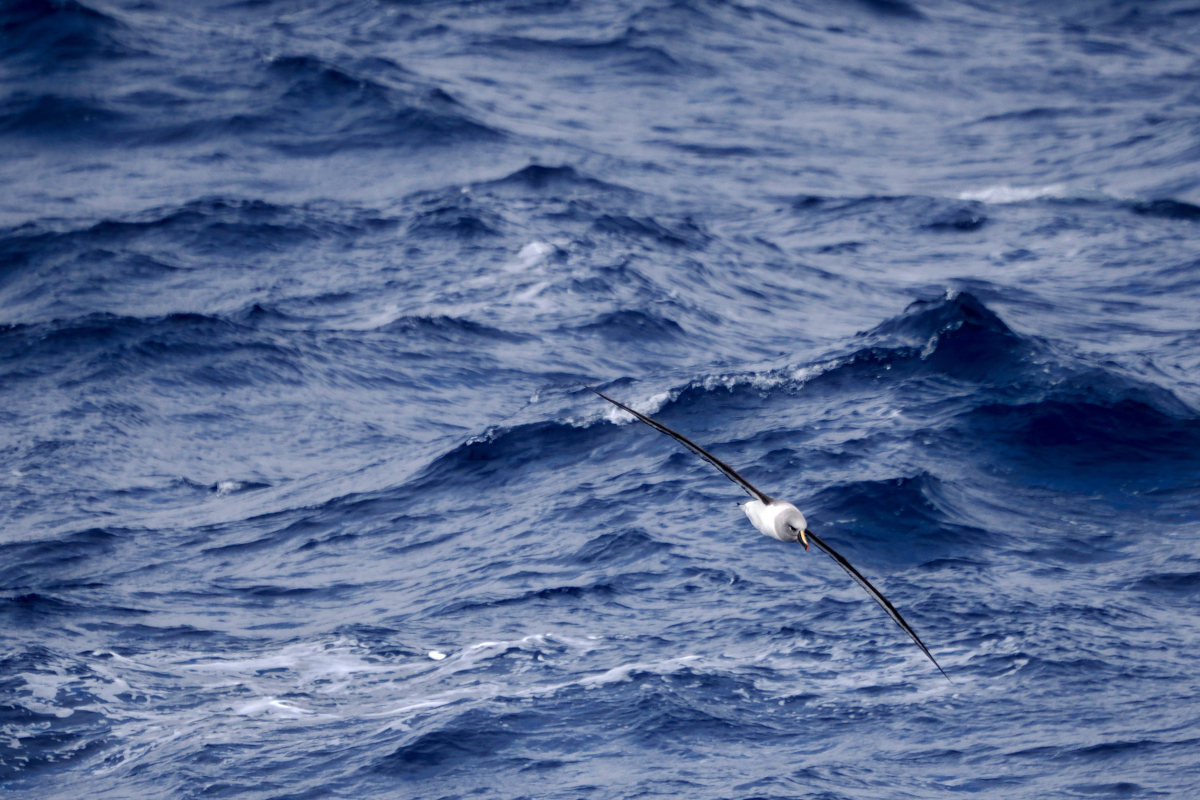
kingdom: Animalia
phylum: Chordata
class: Aves
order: Procellariiformes
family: Diomedeidae
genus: Thalassarche
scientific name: Thalassarche chrysostoma
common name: Grey-headed albatross
